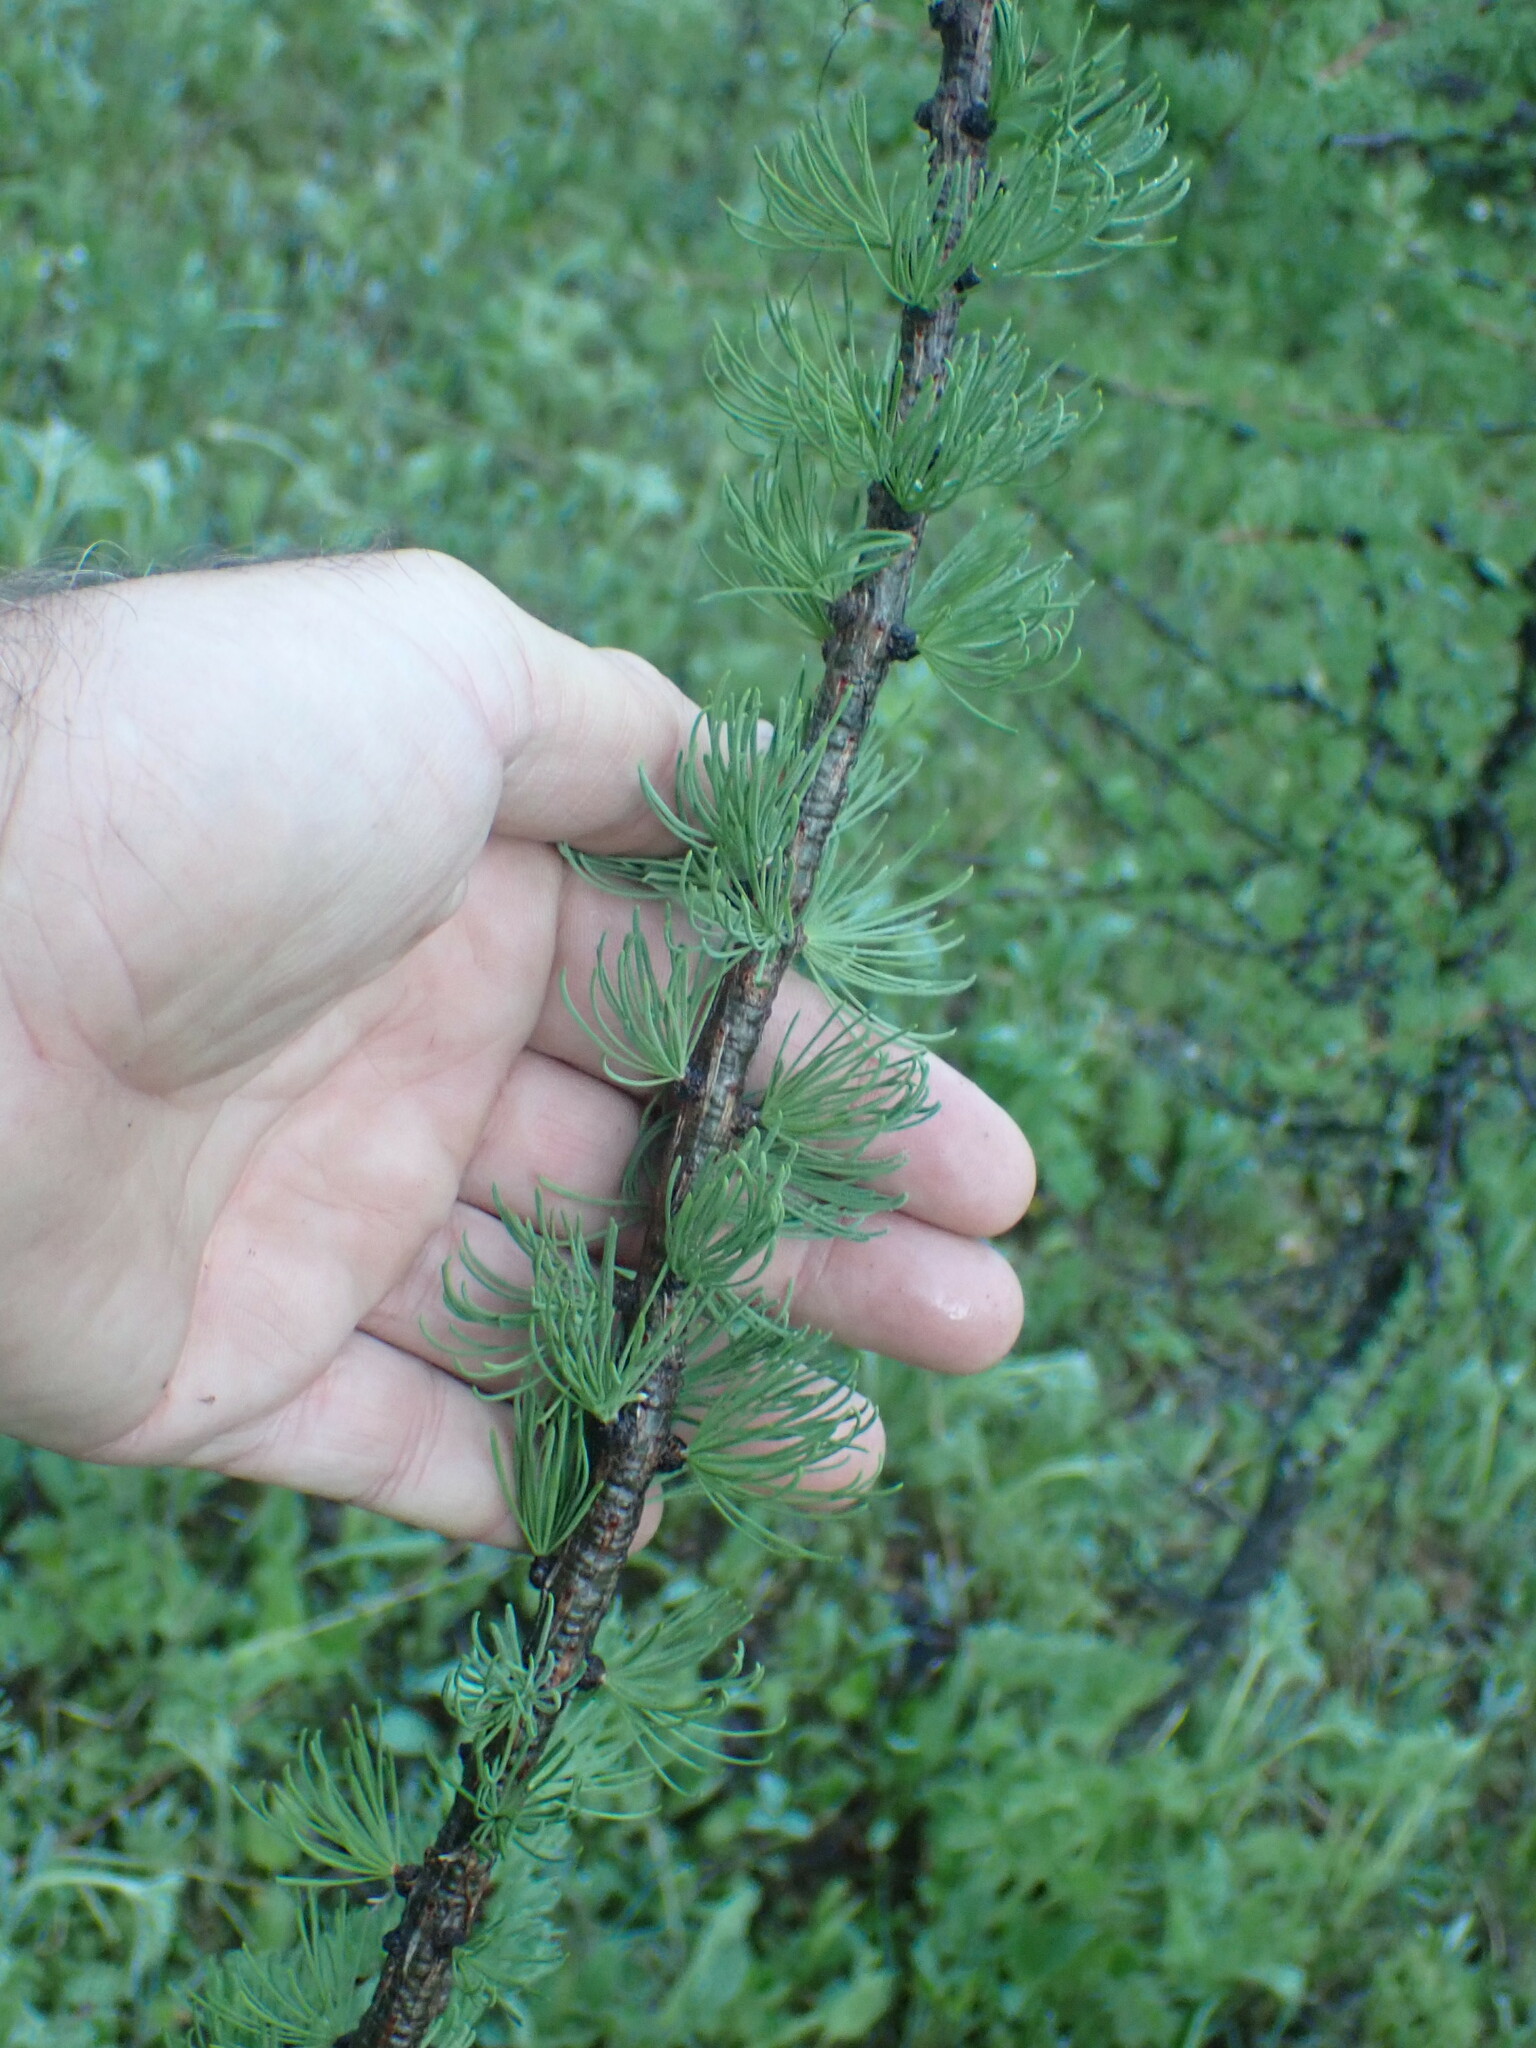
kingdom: Plantae
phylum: Tracheophyta
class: Pinopsida
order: Pinales
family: Pinaceae
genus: Larix
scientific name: Larix lyallii
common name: Alpine larch
